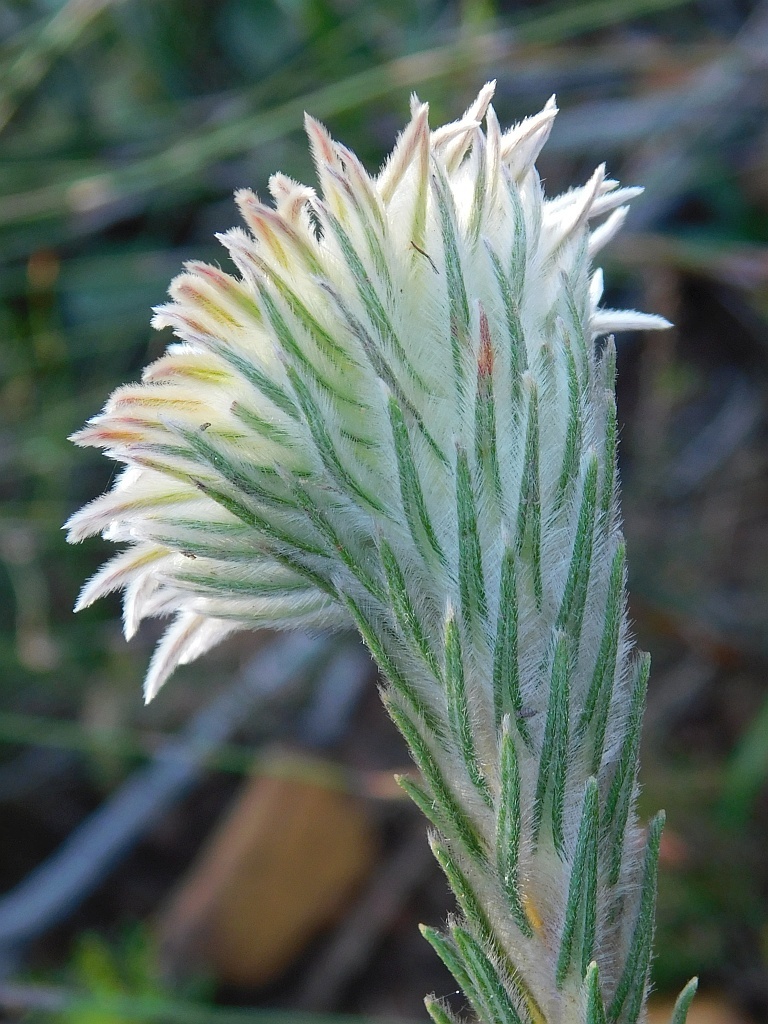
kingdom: Plantae
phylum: Tracheophyta
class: Magnoliopsida
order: Rosales
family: Rhamnaceae
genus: Phylica
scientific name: Phylica calcarata
